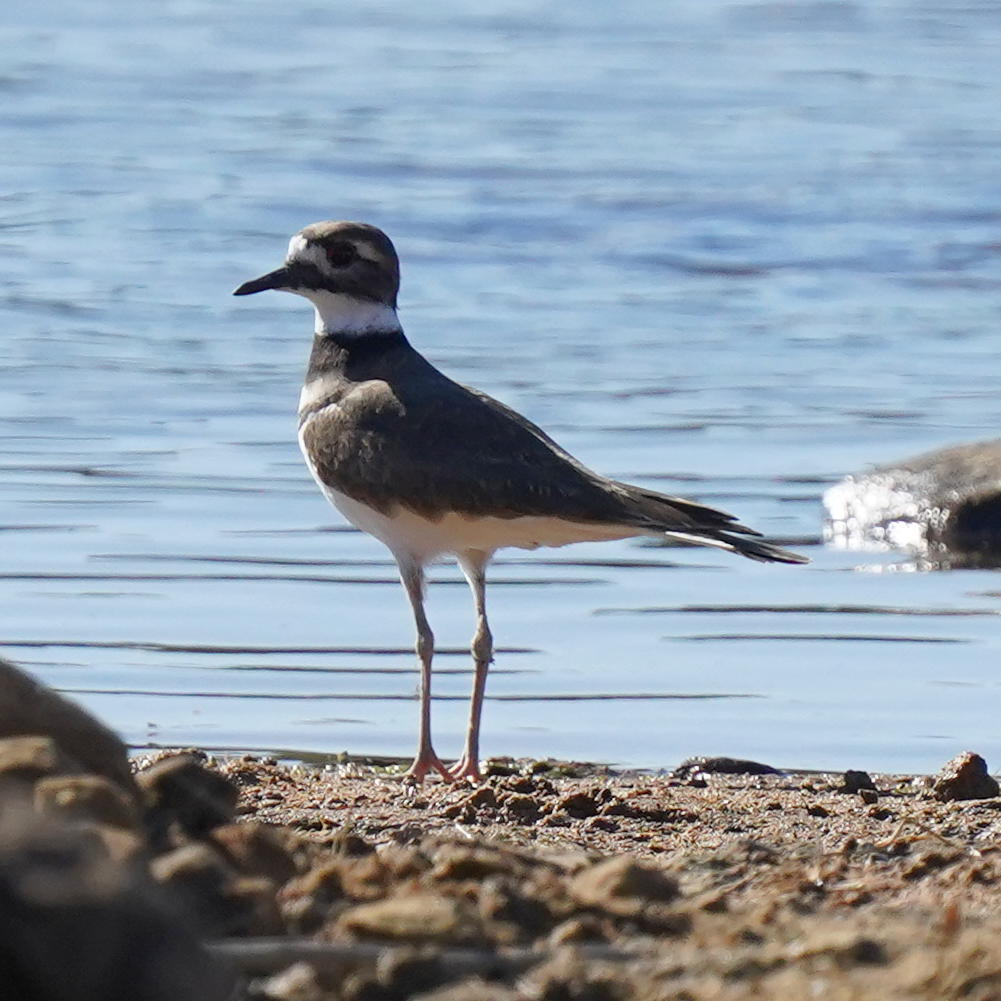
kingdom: Animalia
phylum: Chordata
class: Aves
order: Charadriiformes
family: Charadriidae
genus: Charadrius
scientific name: Charadrius vociferus
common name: Killdeer
